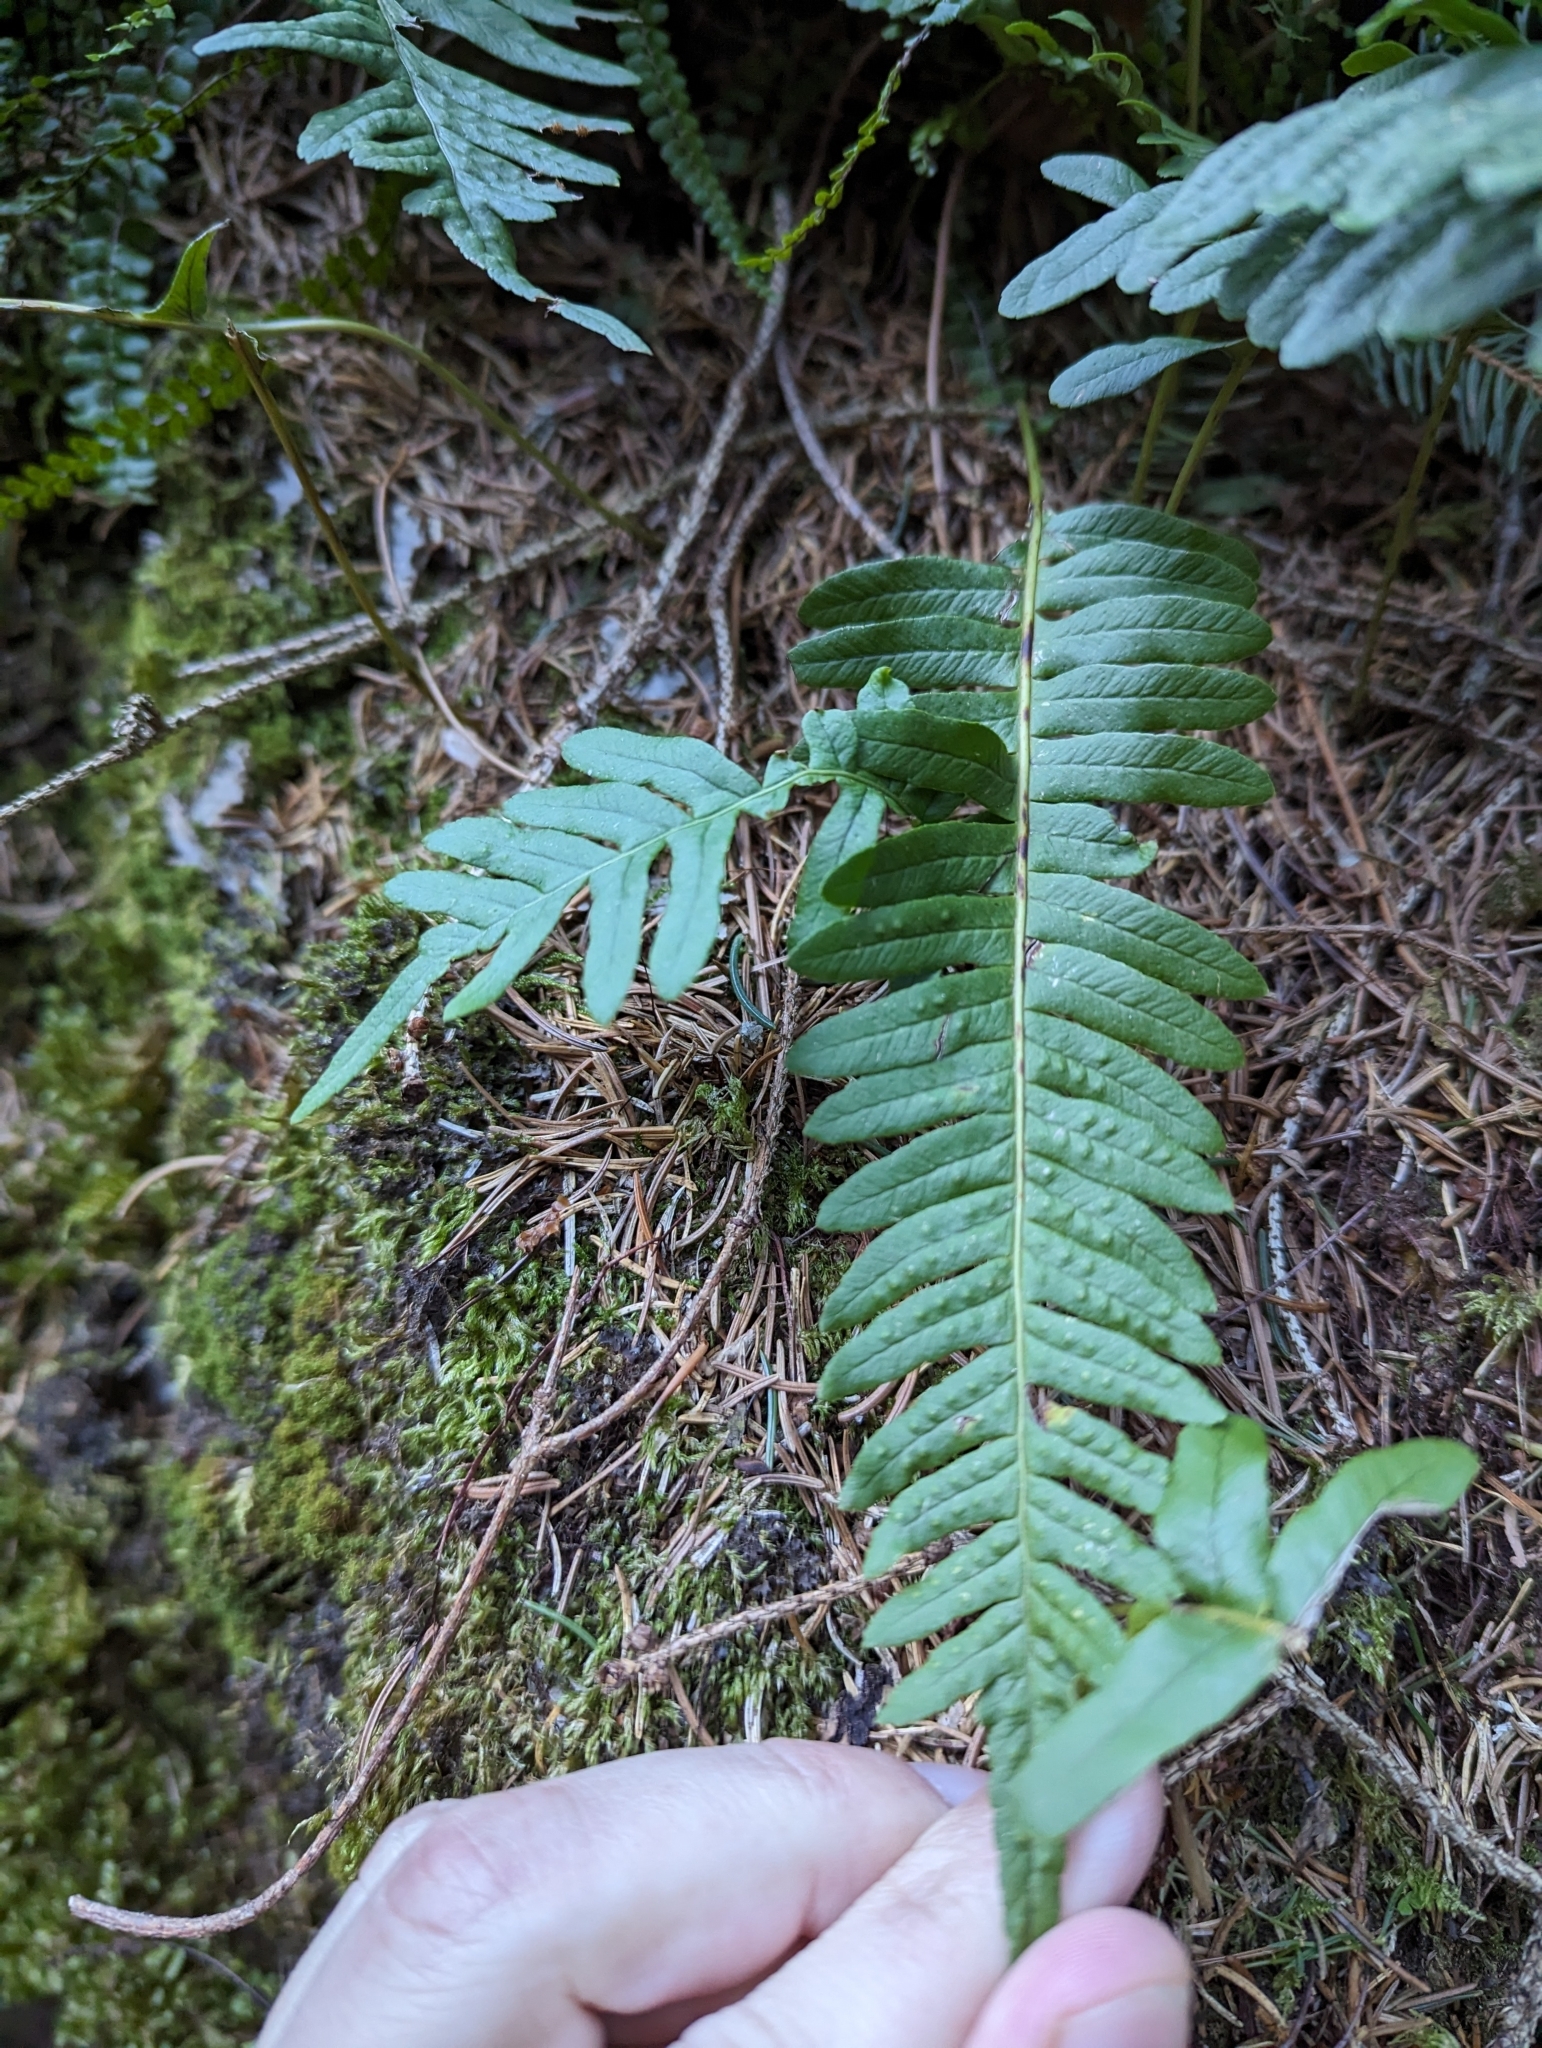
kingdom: Plantae
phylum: Tracheophyta
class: Polypodiopsida
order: Polypodiales
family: Polypodiaceae
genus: Polypodium
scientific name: Polypodium vulgare
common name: Common polypody
